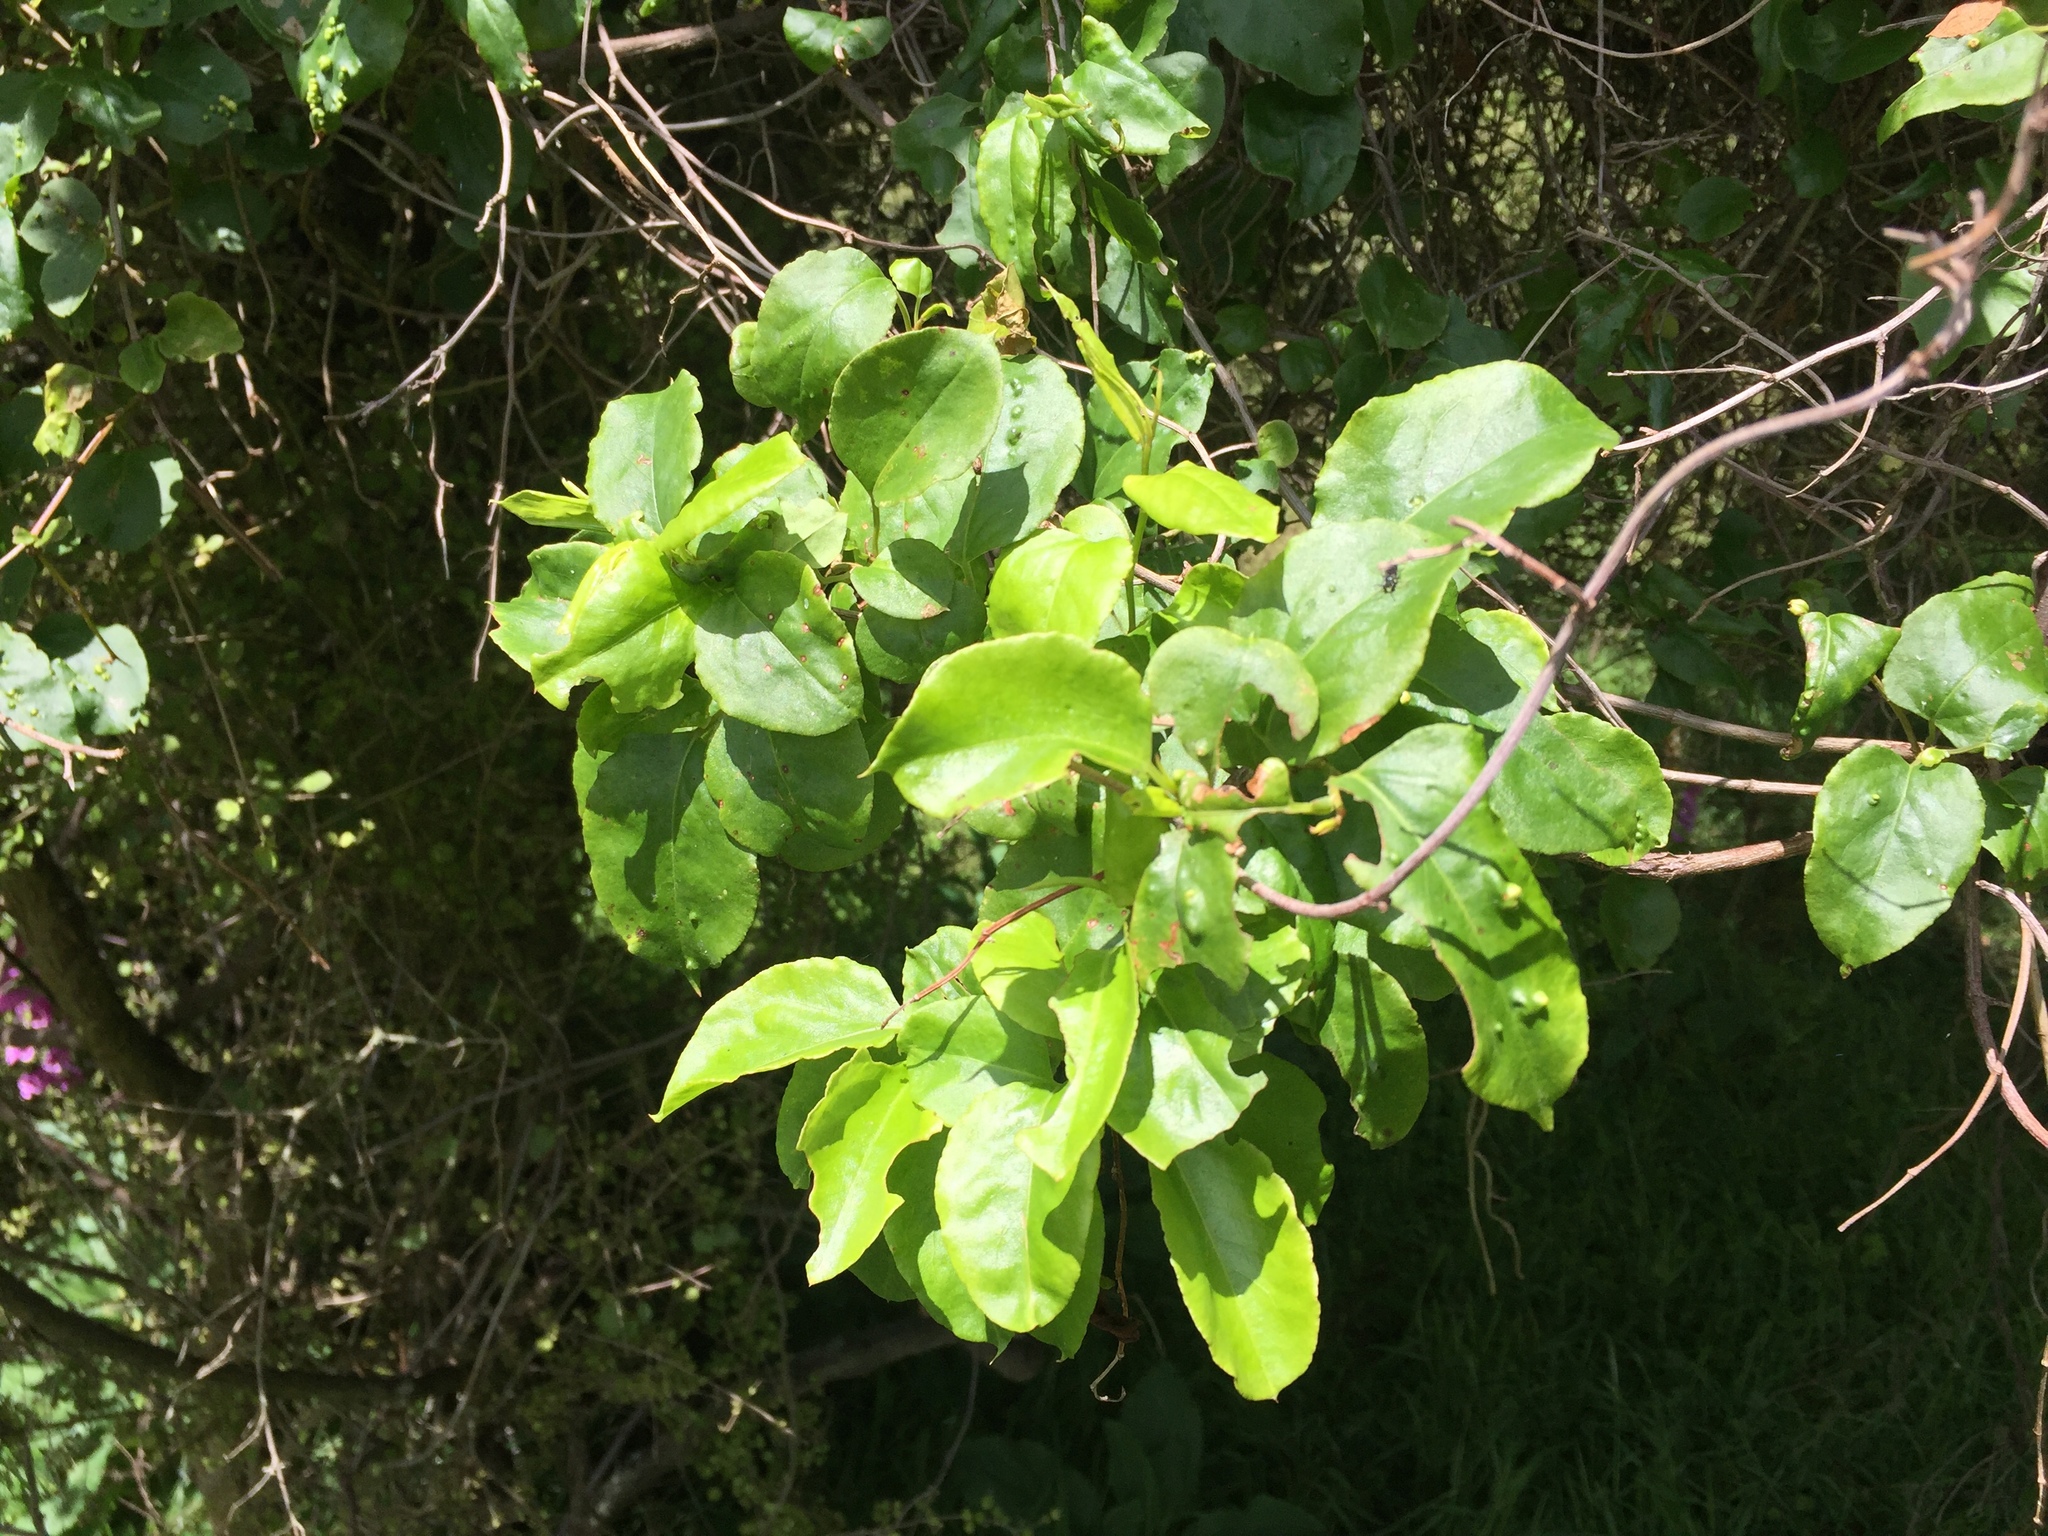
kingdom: Plantae
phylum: Tracheophyta
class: Magnoliopsida
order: Caryophyllales
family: Polygonaceae
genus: Muehlenbeckia
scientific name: Muehlenbeckia australis
